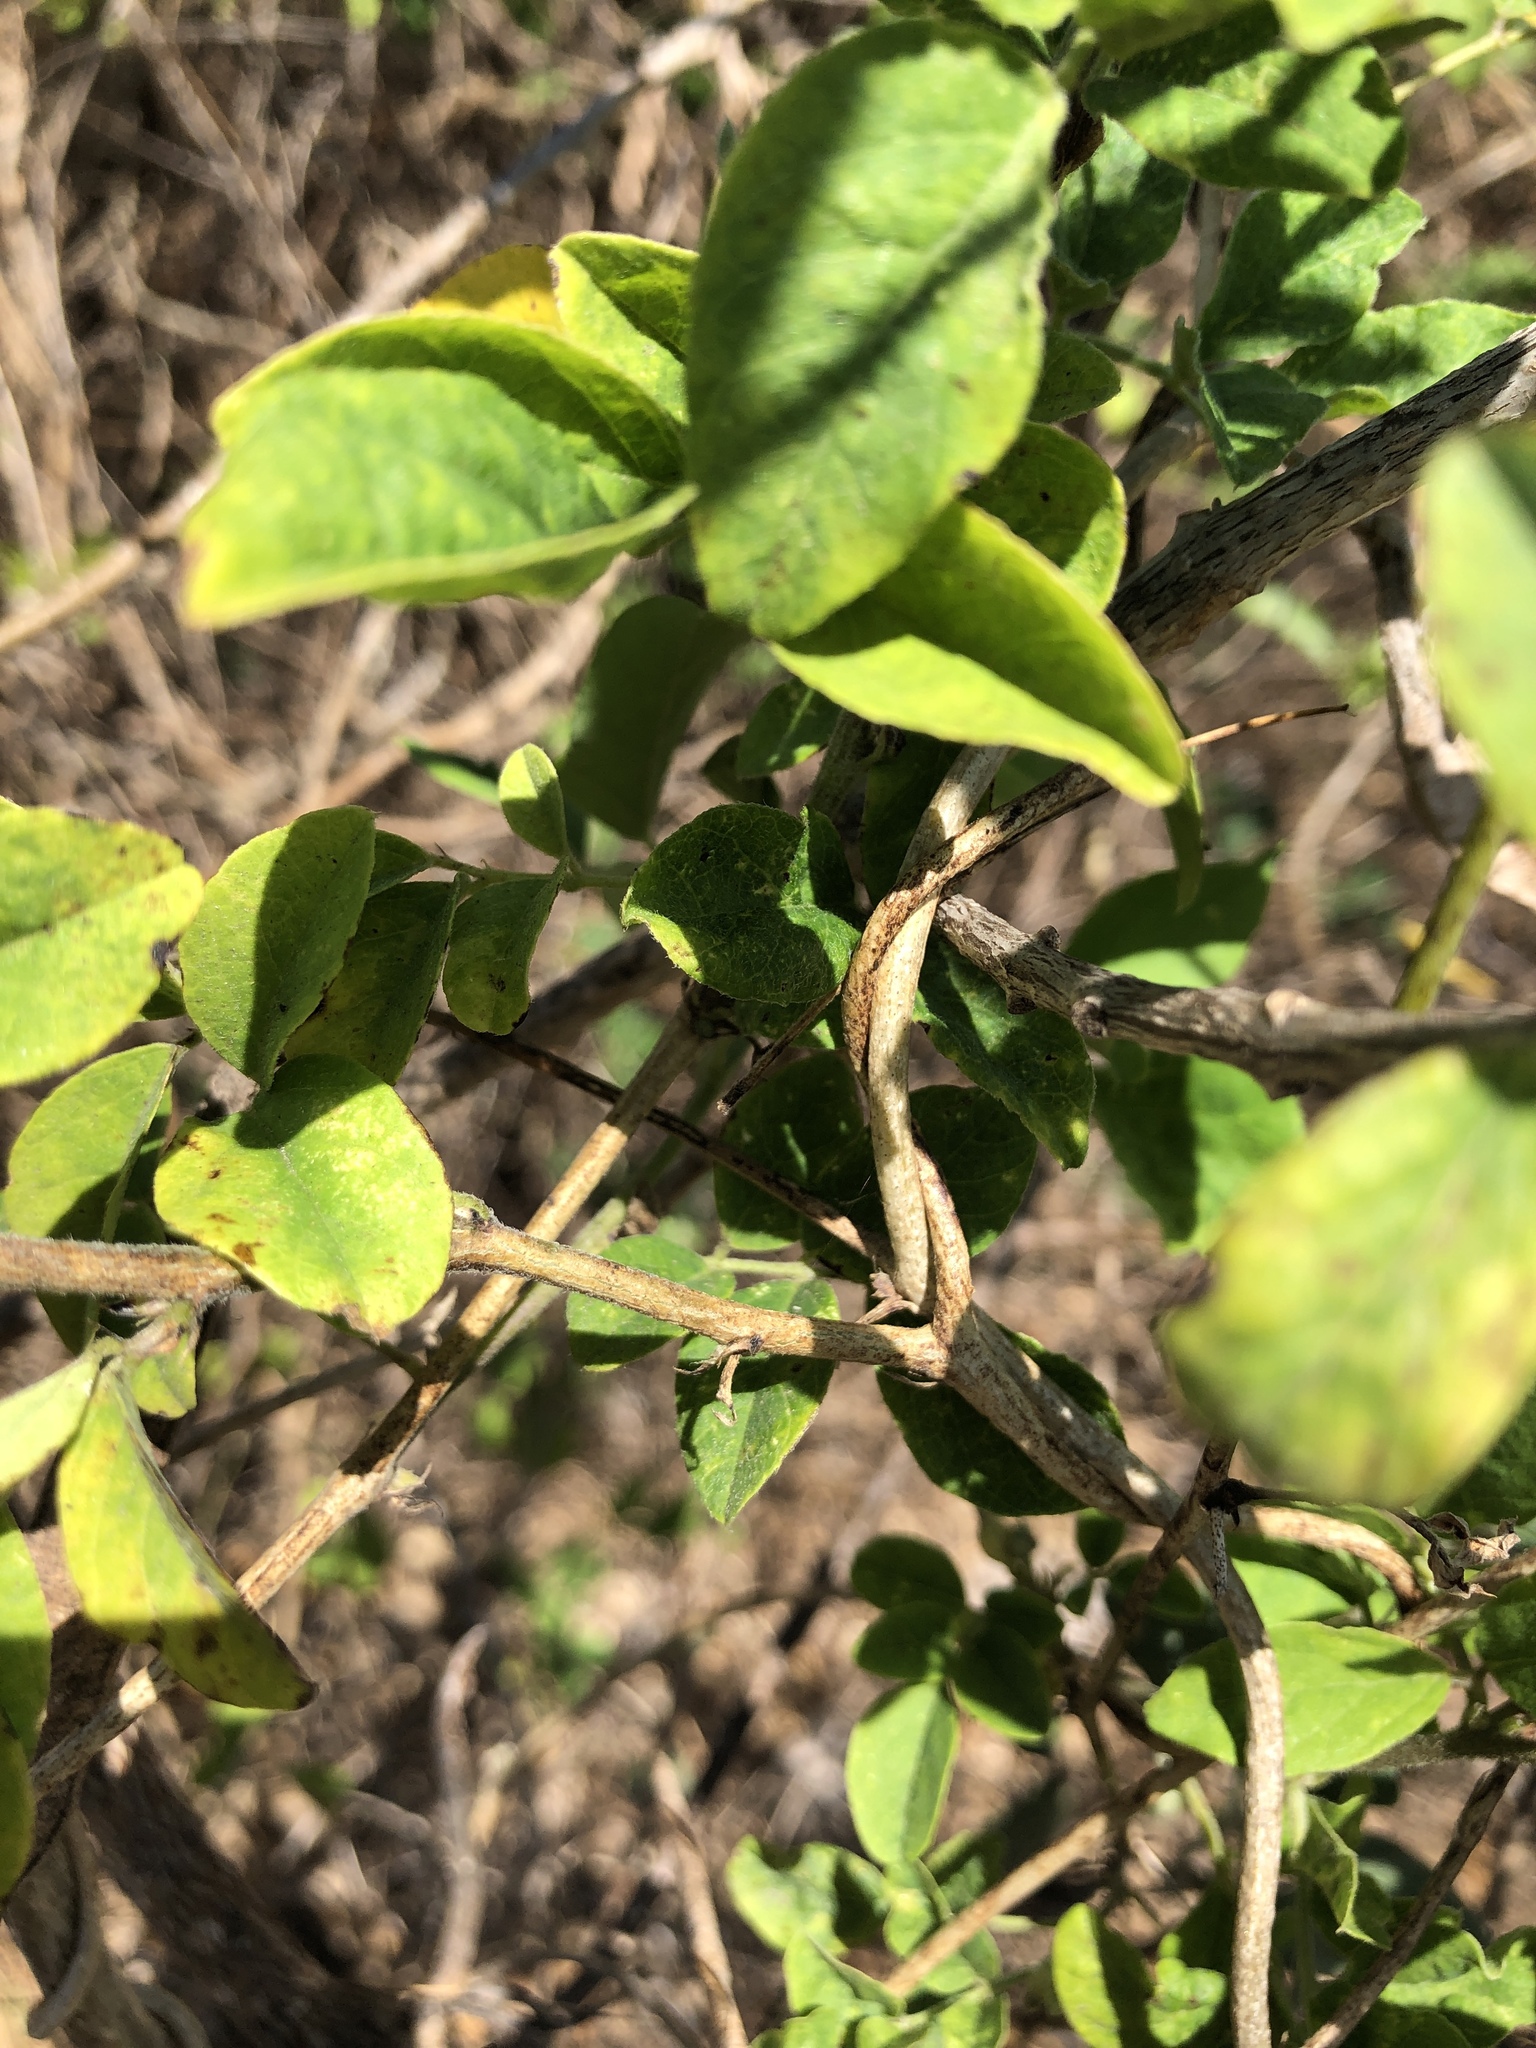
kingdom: Plantae
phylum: Tracheophyta
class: Magnoliopsida
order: Fabales
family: Fabaceae
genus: Clitoria
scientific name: Clitoria ternatea
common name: Asian pigeonwings
